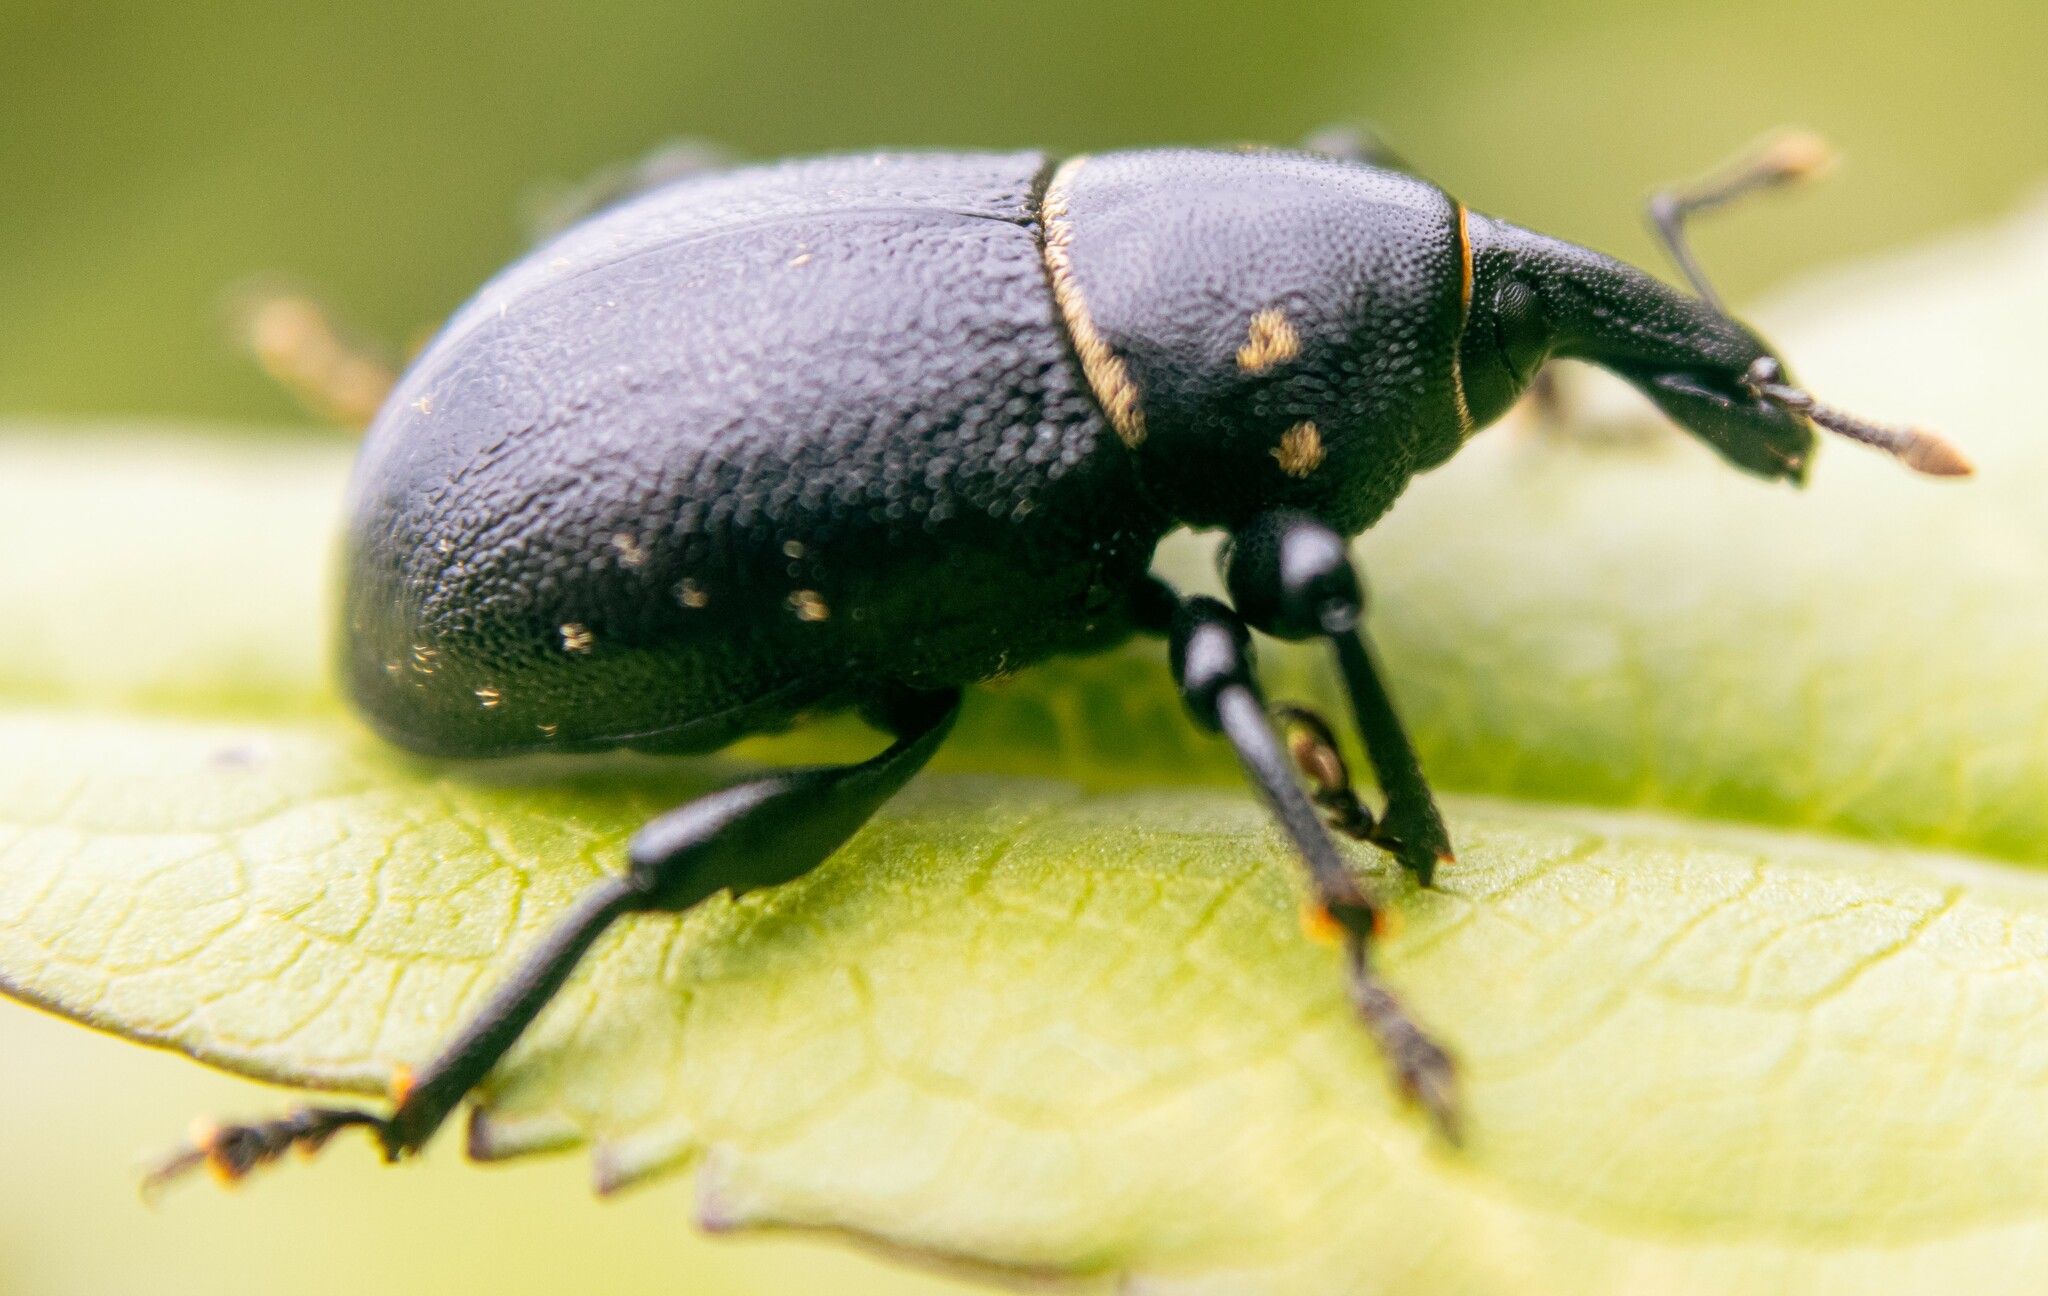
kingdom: Animalia
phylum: Arthropoda
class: Insecta
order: Coleoptera
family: Curculionidae
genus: Liparus
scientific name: Liparus coronatus
